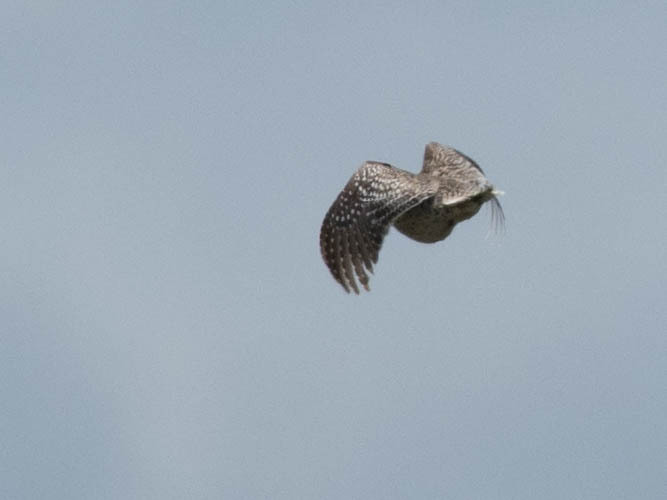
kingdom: Animalia
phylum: Chordata
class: Aves
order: Galliformes
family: Phasianidae
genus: Tympanuchus
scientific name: Tympanuchus phasianellus
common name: Sharp-tailed grouse
